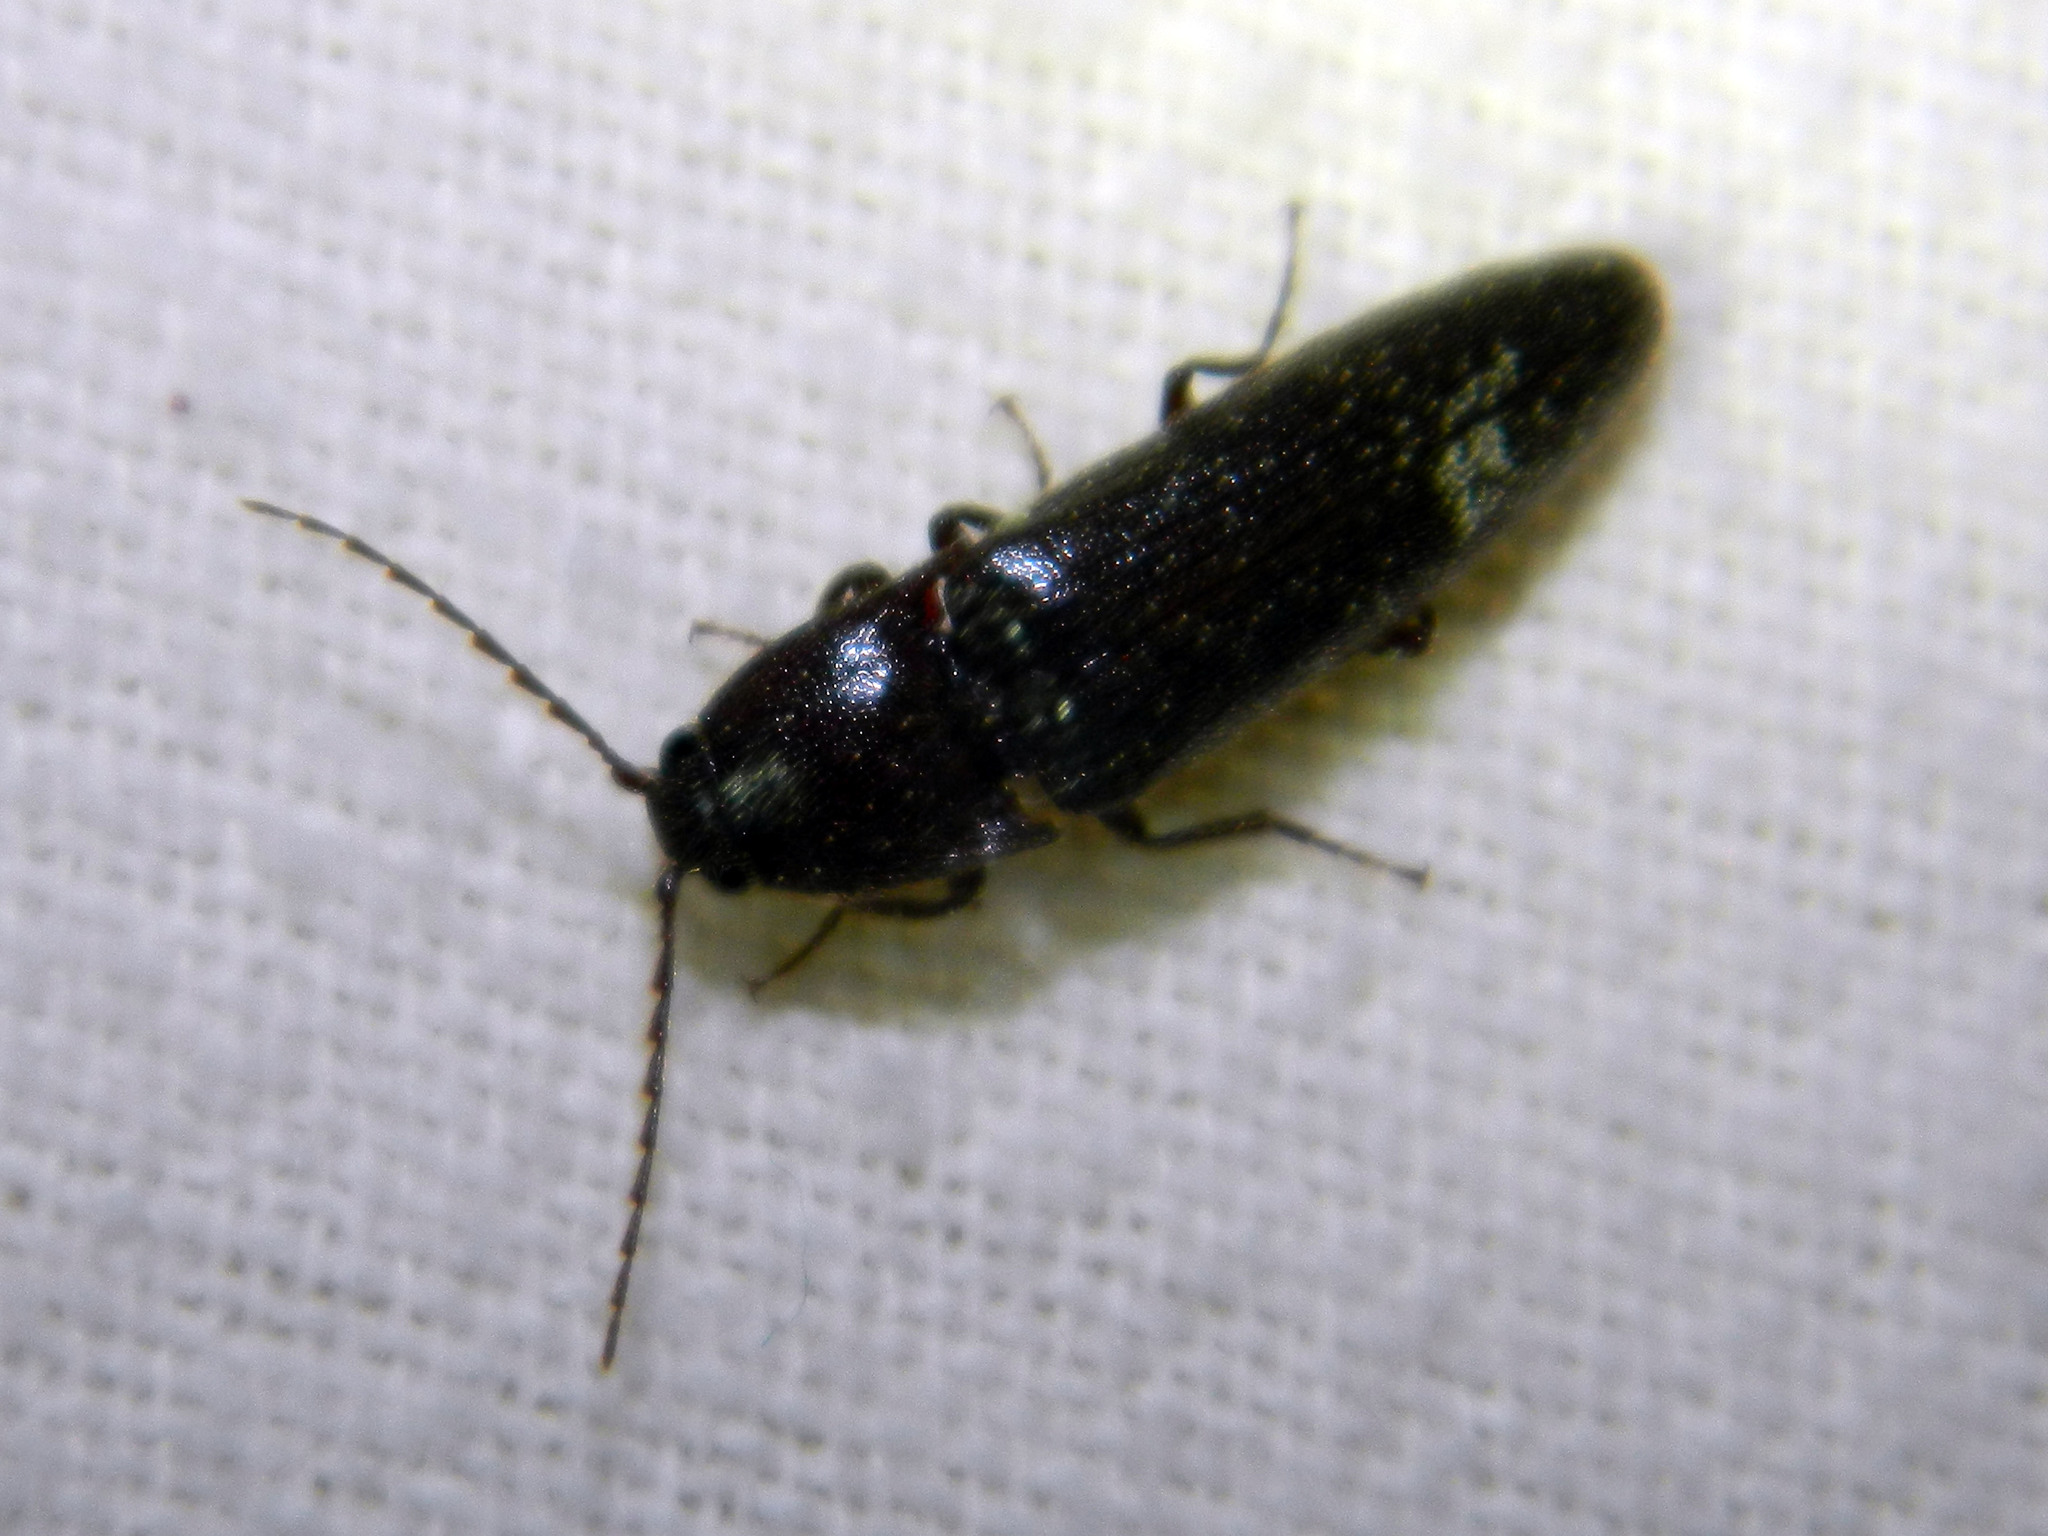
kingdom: Animalia
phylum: Arthropoda
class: Insecta
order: Coleoptera
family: Elateridae
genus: Melanotus
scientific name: Melanotus castanipes
